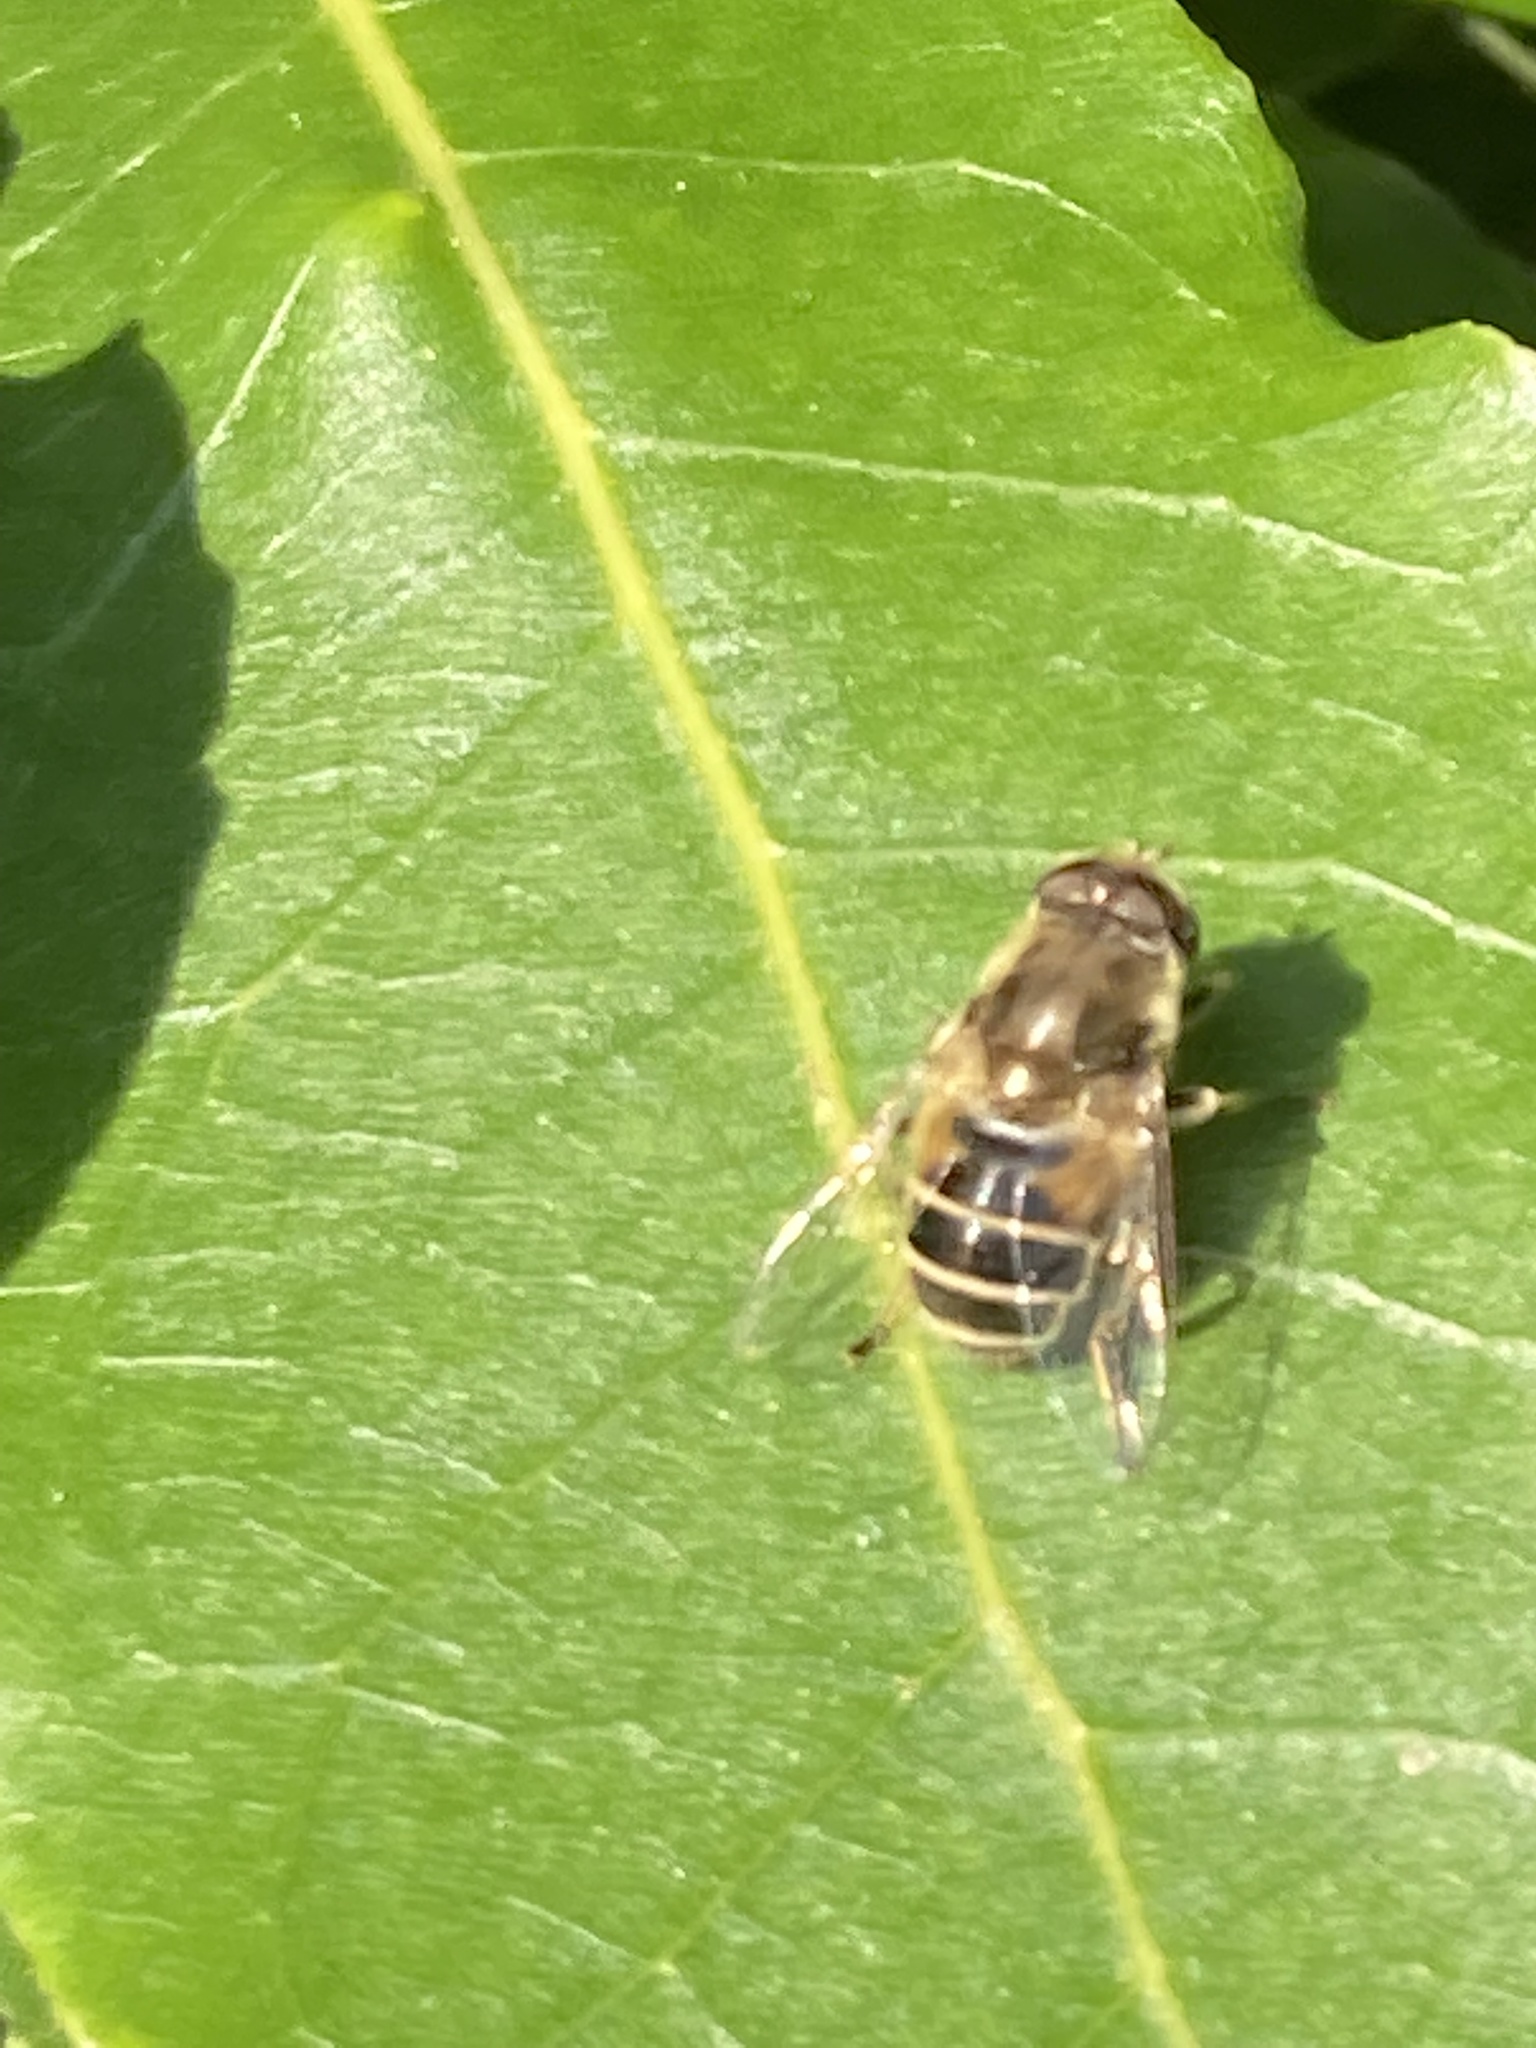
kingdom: Animalia
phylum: Arthropoda
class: Insecta
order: Diptera
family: Syrphidae
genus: Eristalis
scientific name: Eristalis arbustorum
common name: Hover fly
